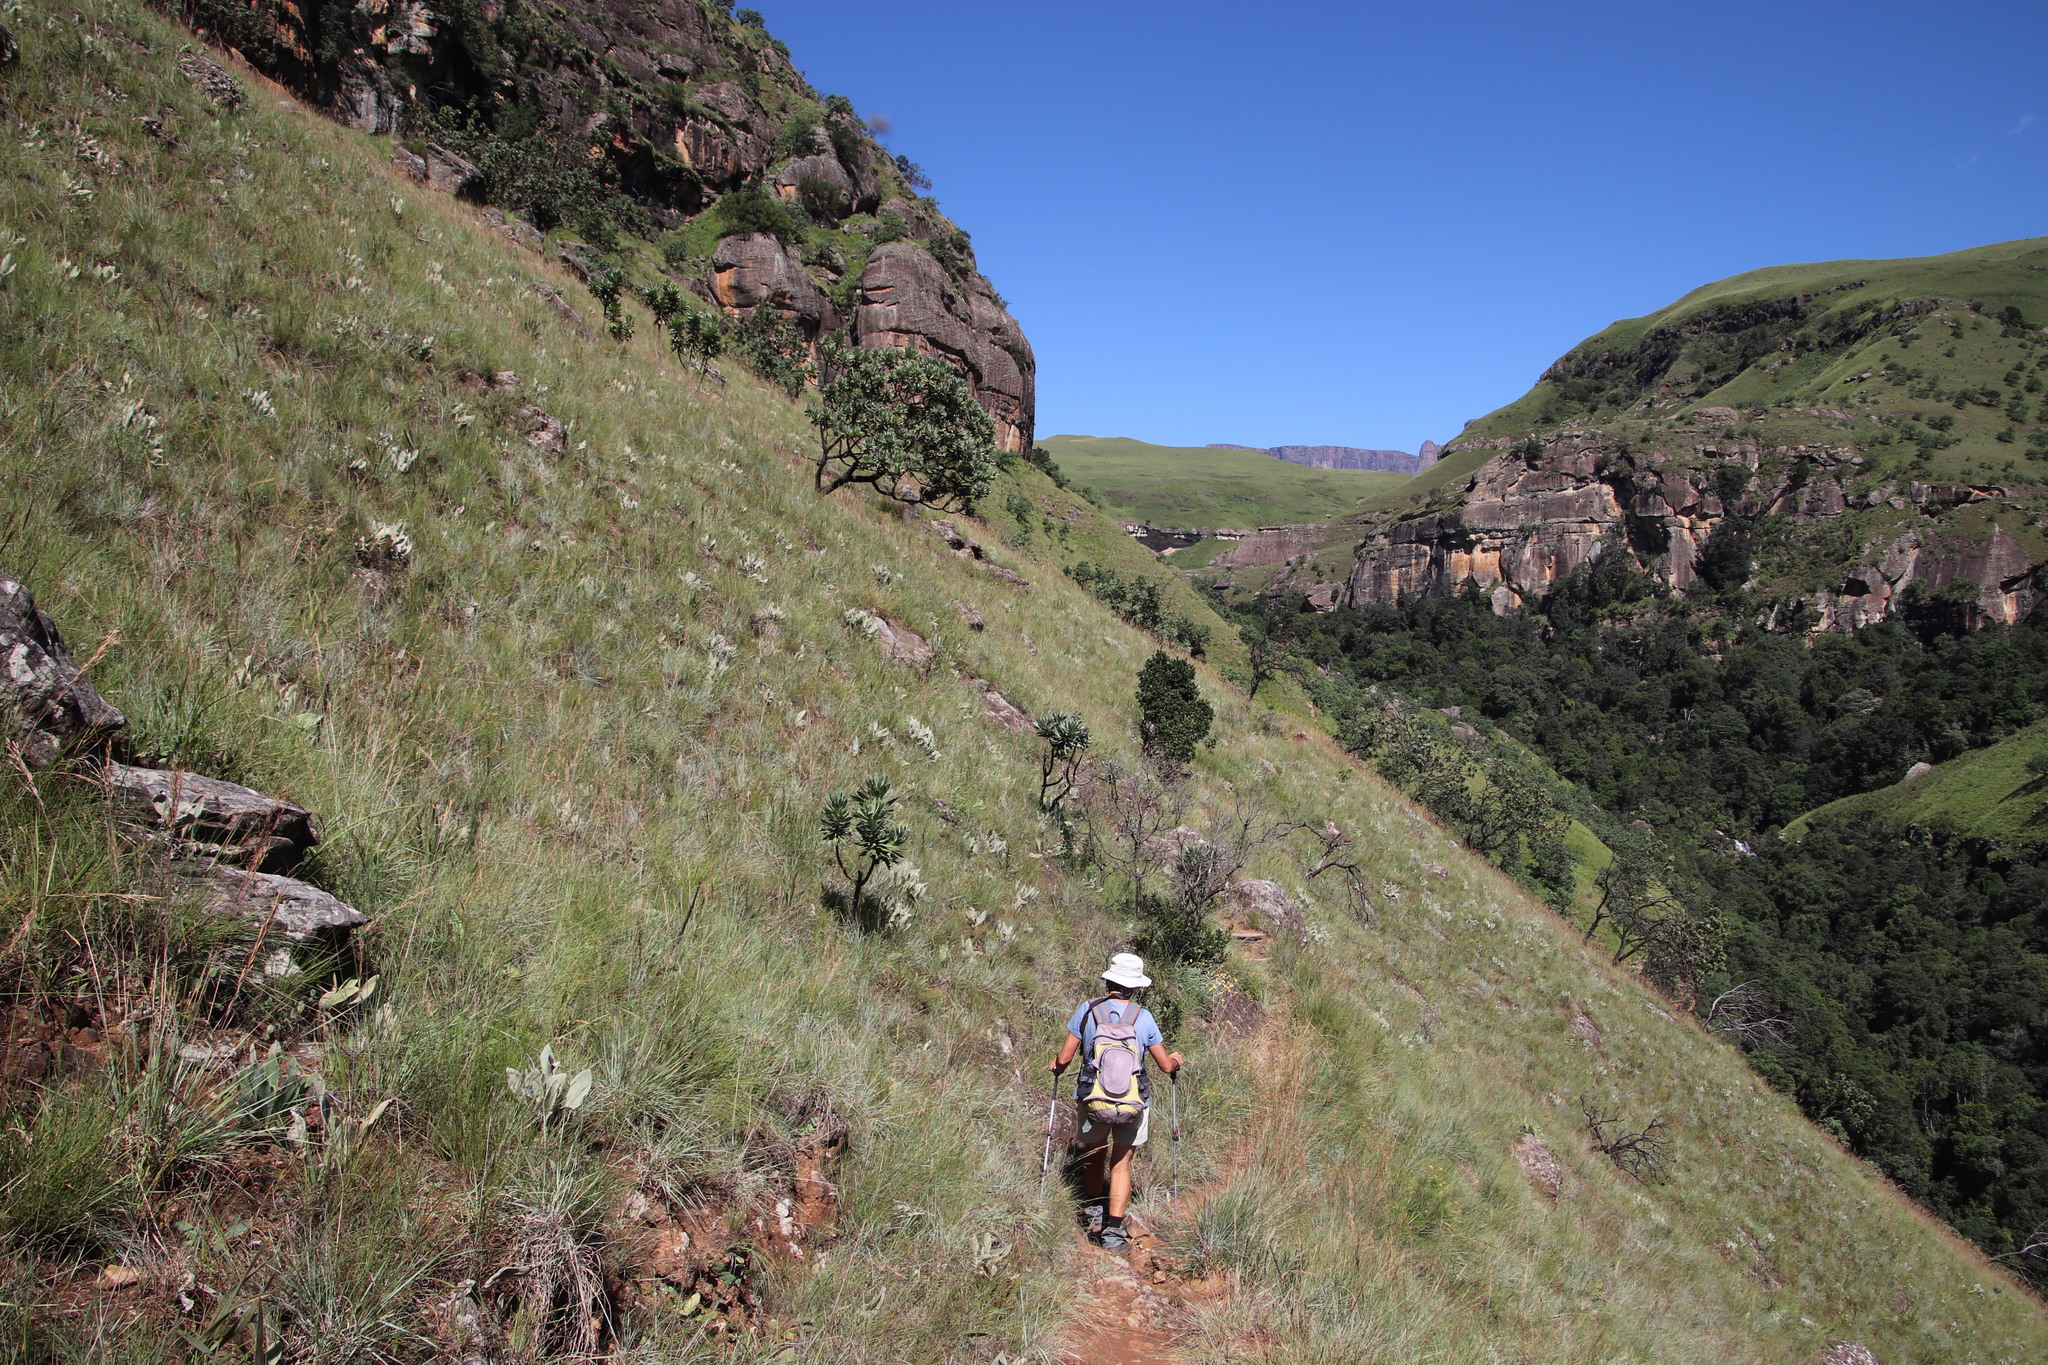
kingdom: Plantae
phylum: Tracheophyta
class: Magnoliopsida
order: Proteales
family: Proteaceae
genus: Protea
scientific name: Protea roupelliae
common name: Silver sugarbush
